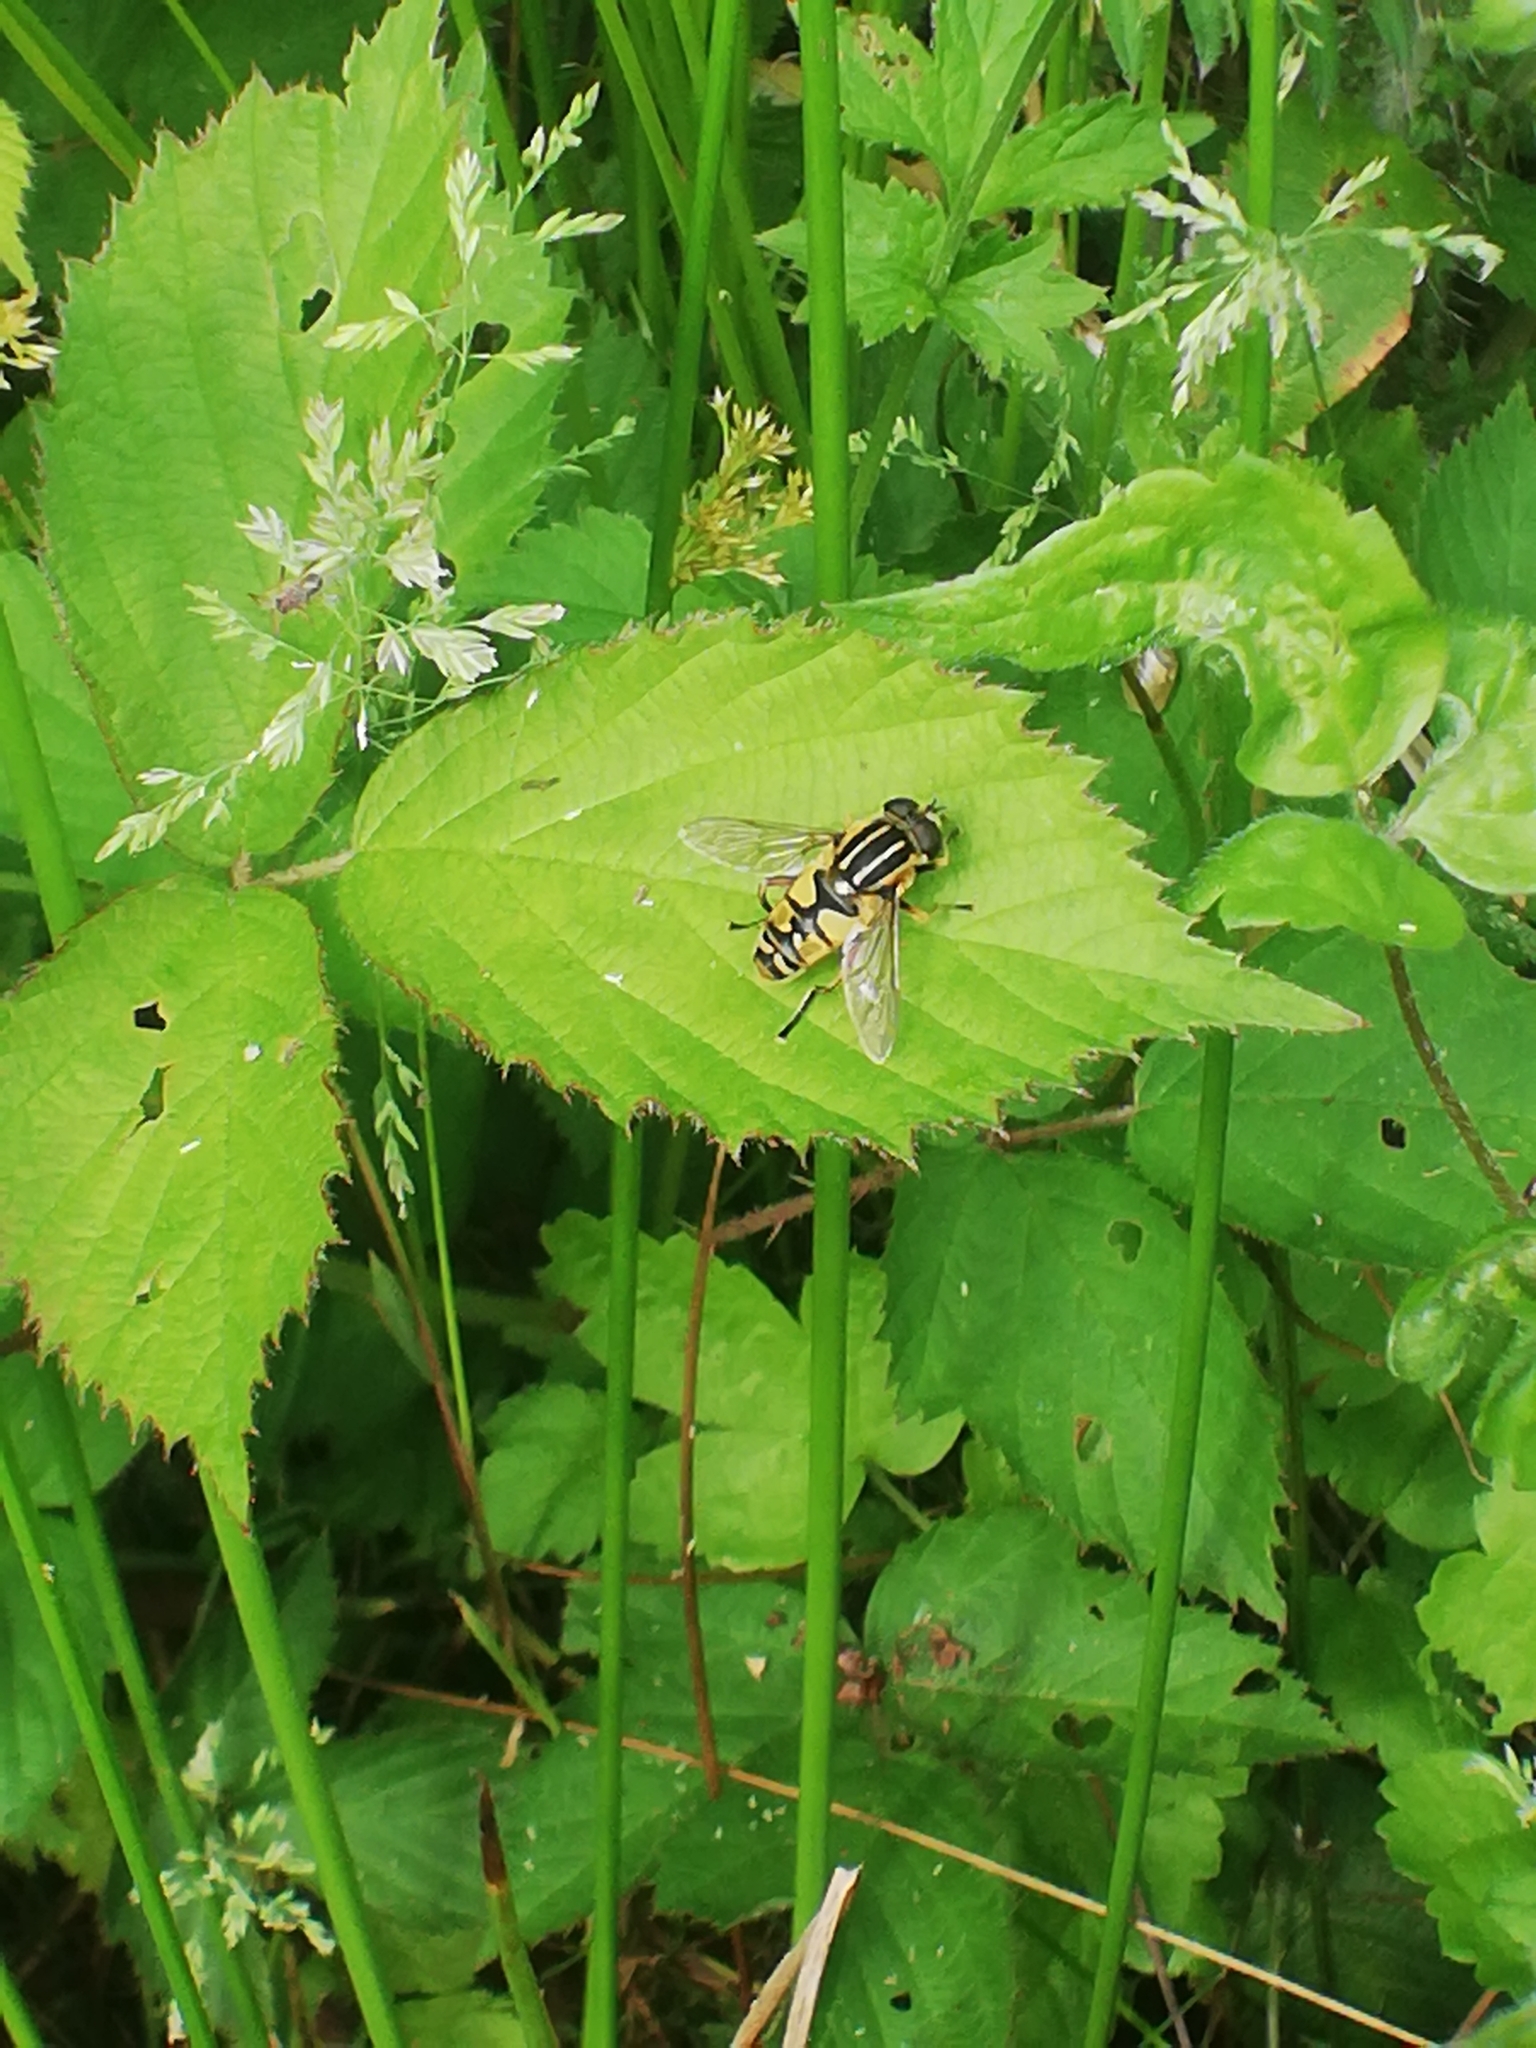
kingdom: Animalia
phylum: Arthropoda
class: Insecta
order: Diptera
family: Syrphidae
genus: Helophilus
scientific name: Helophilus pendulus
